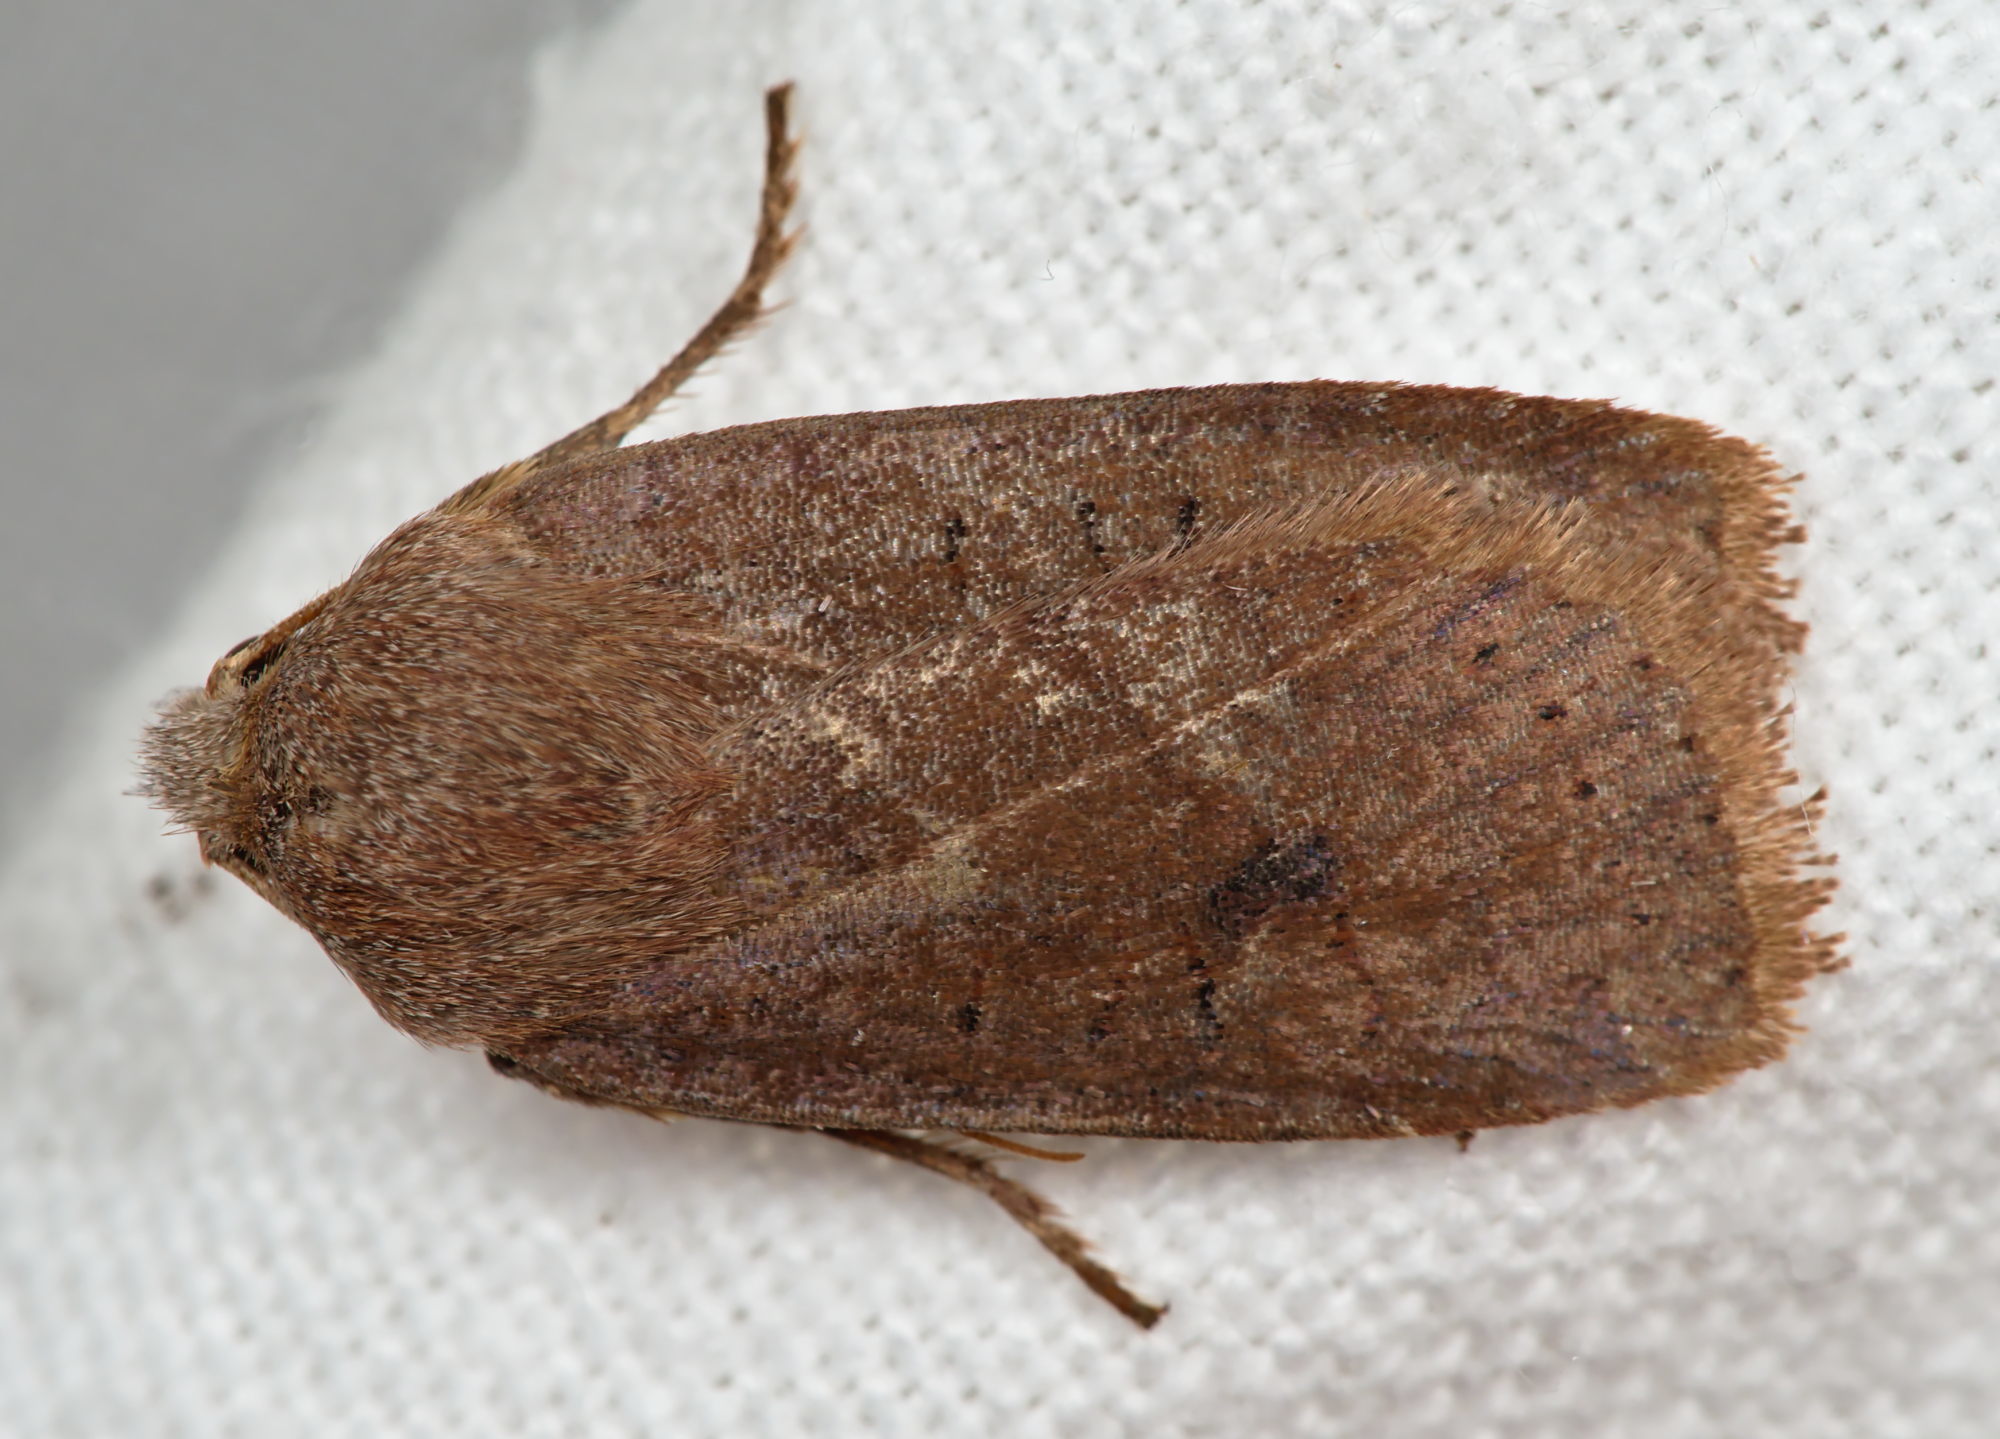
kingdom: Animalia
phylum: Arthropoda
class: Insecta
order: Lepidoptera
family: Noctuidae
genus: Conistra
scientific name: Conistra vaccinii
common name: Chestnut
